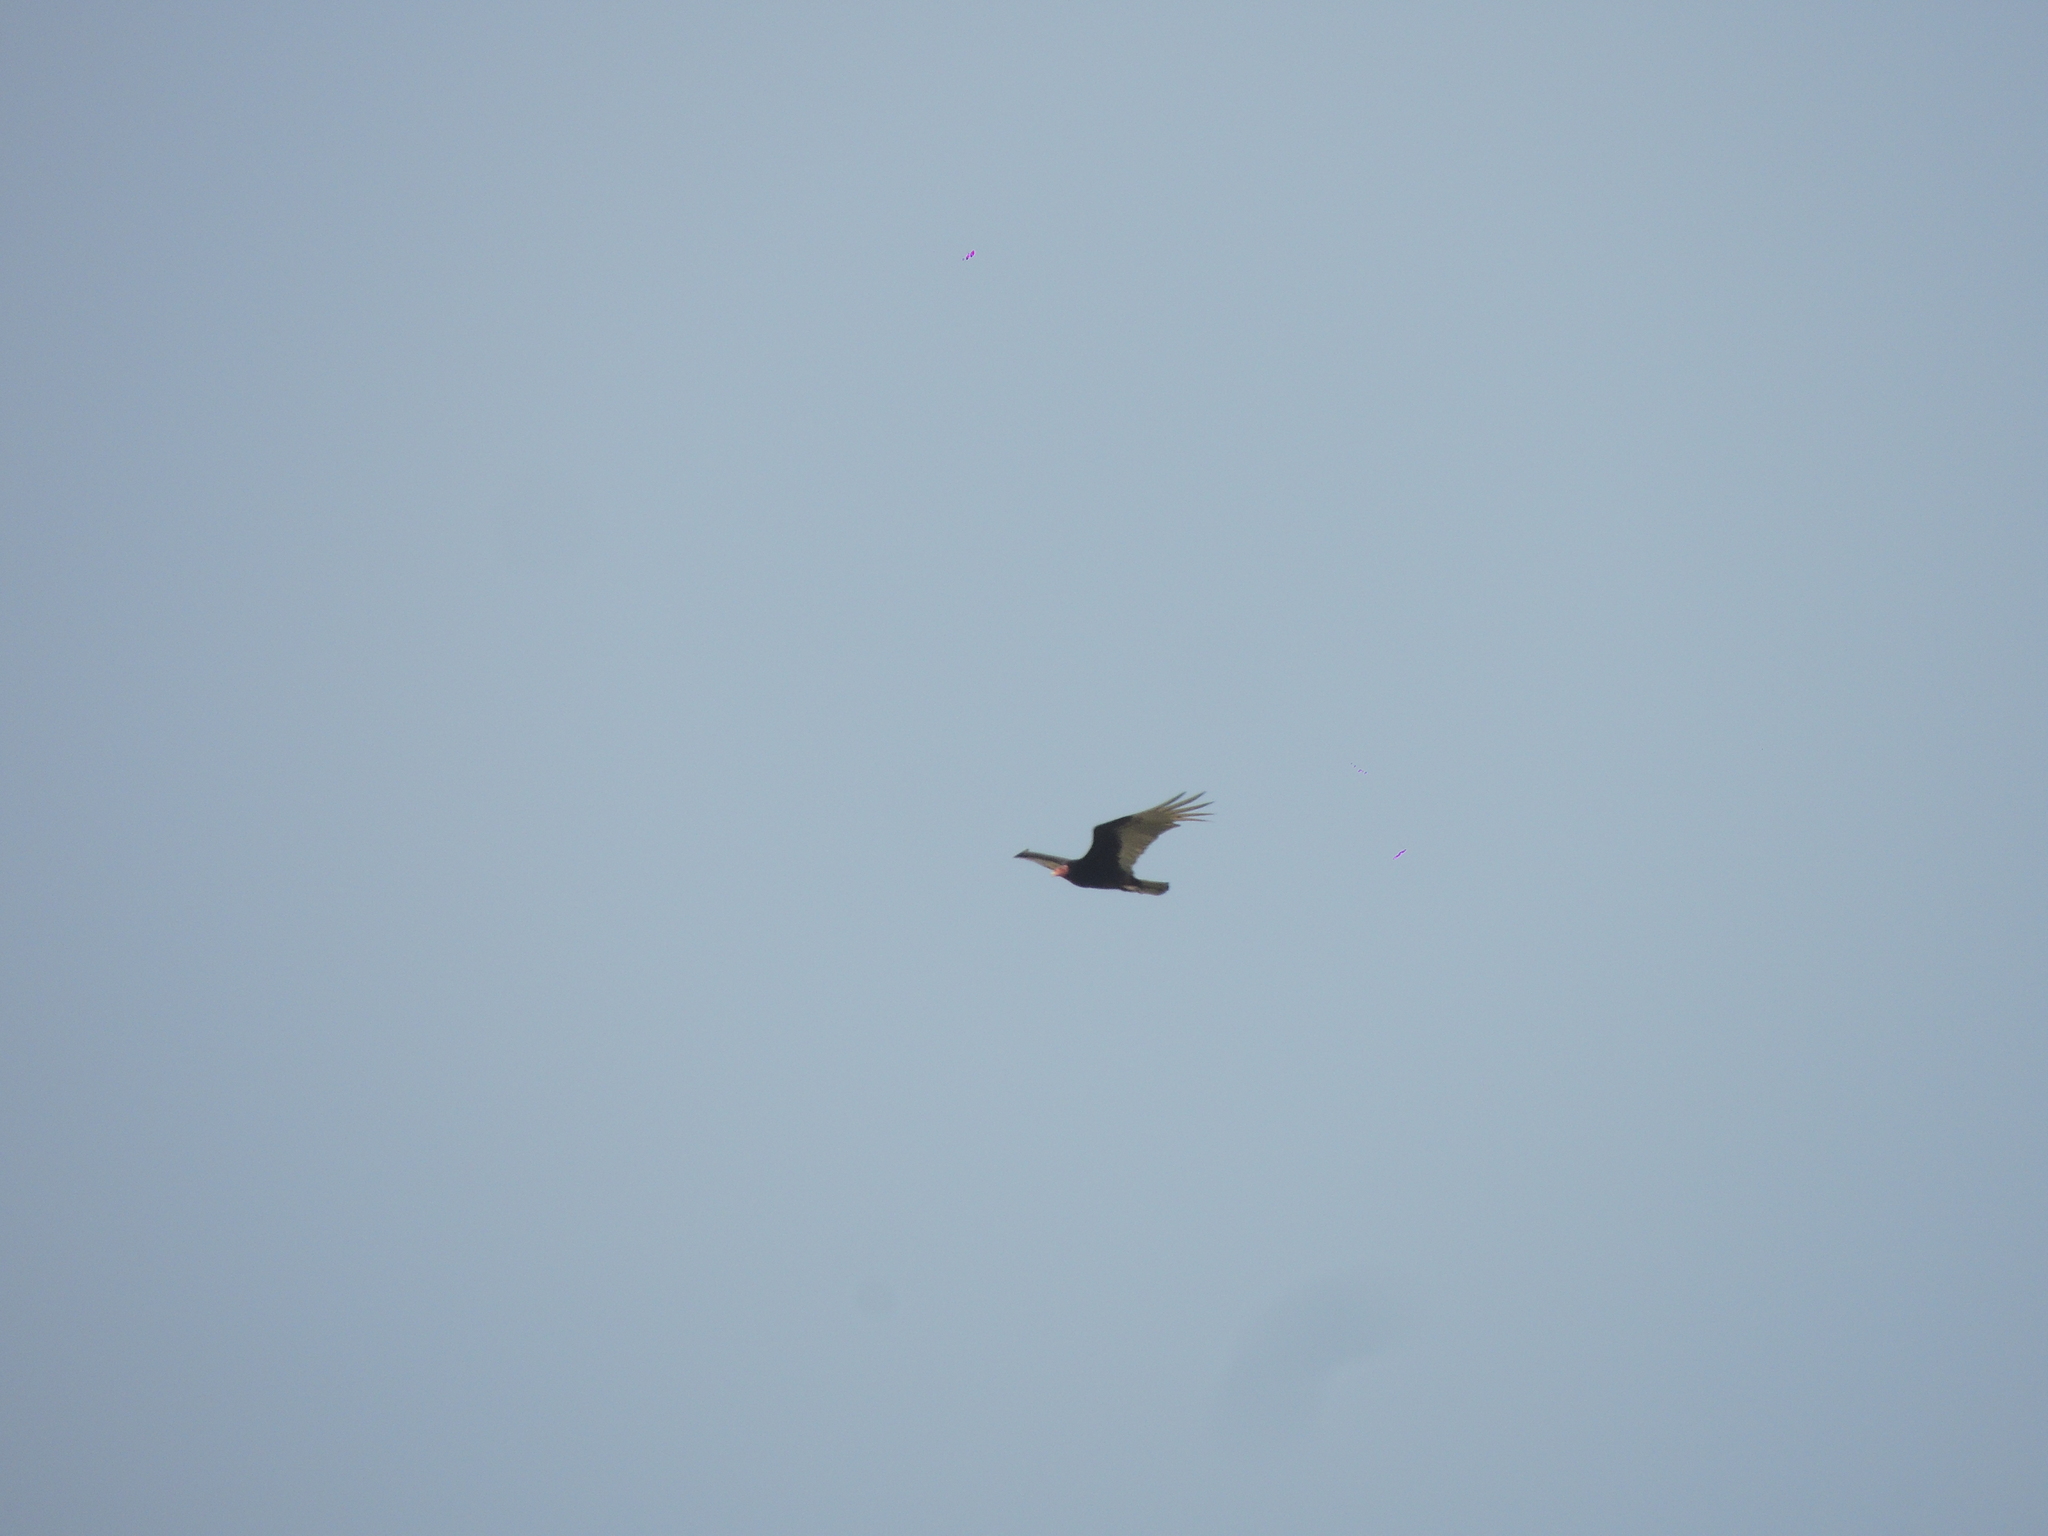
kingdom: Animalia
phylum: Chordata
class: Aves
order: Accipitriformes
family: Cathartidae
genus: Cathartes
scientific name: Cathartes aura
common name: Turkey vulture
